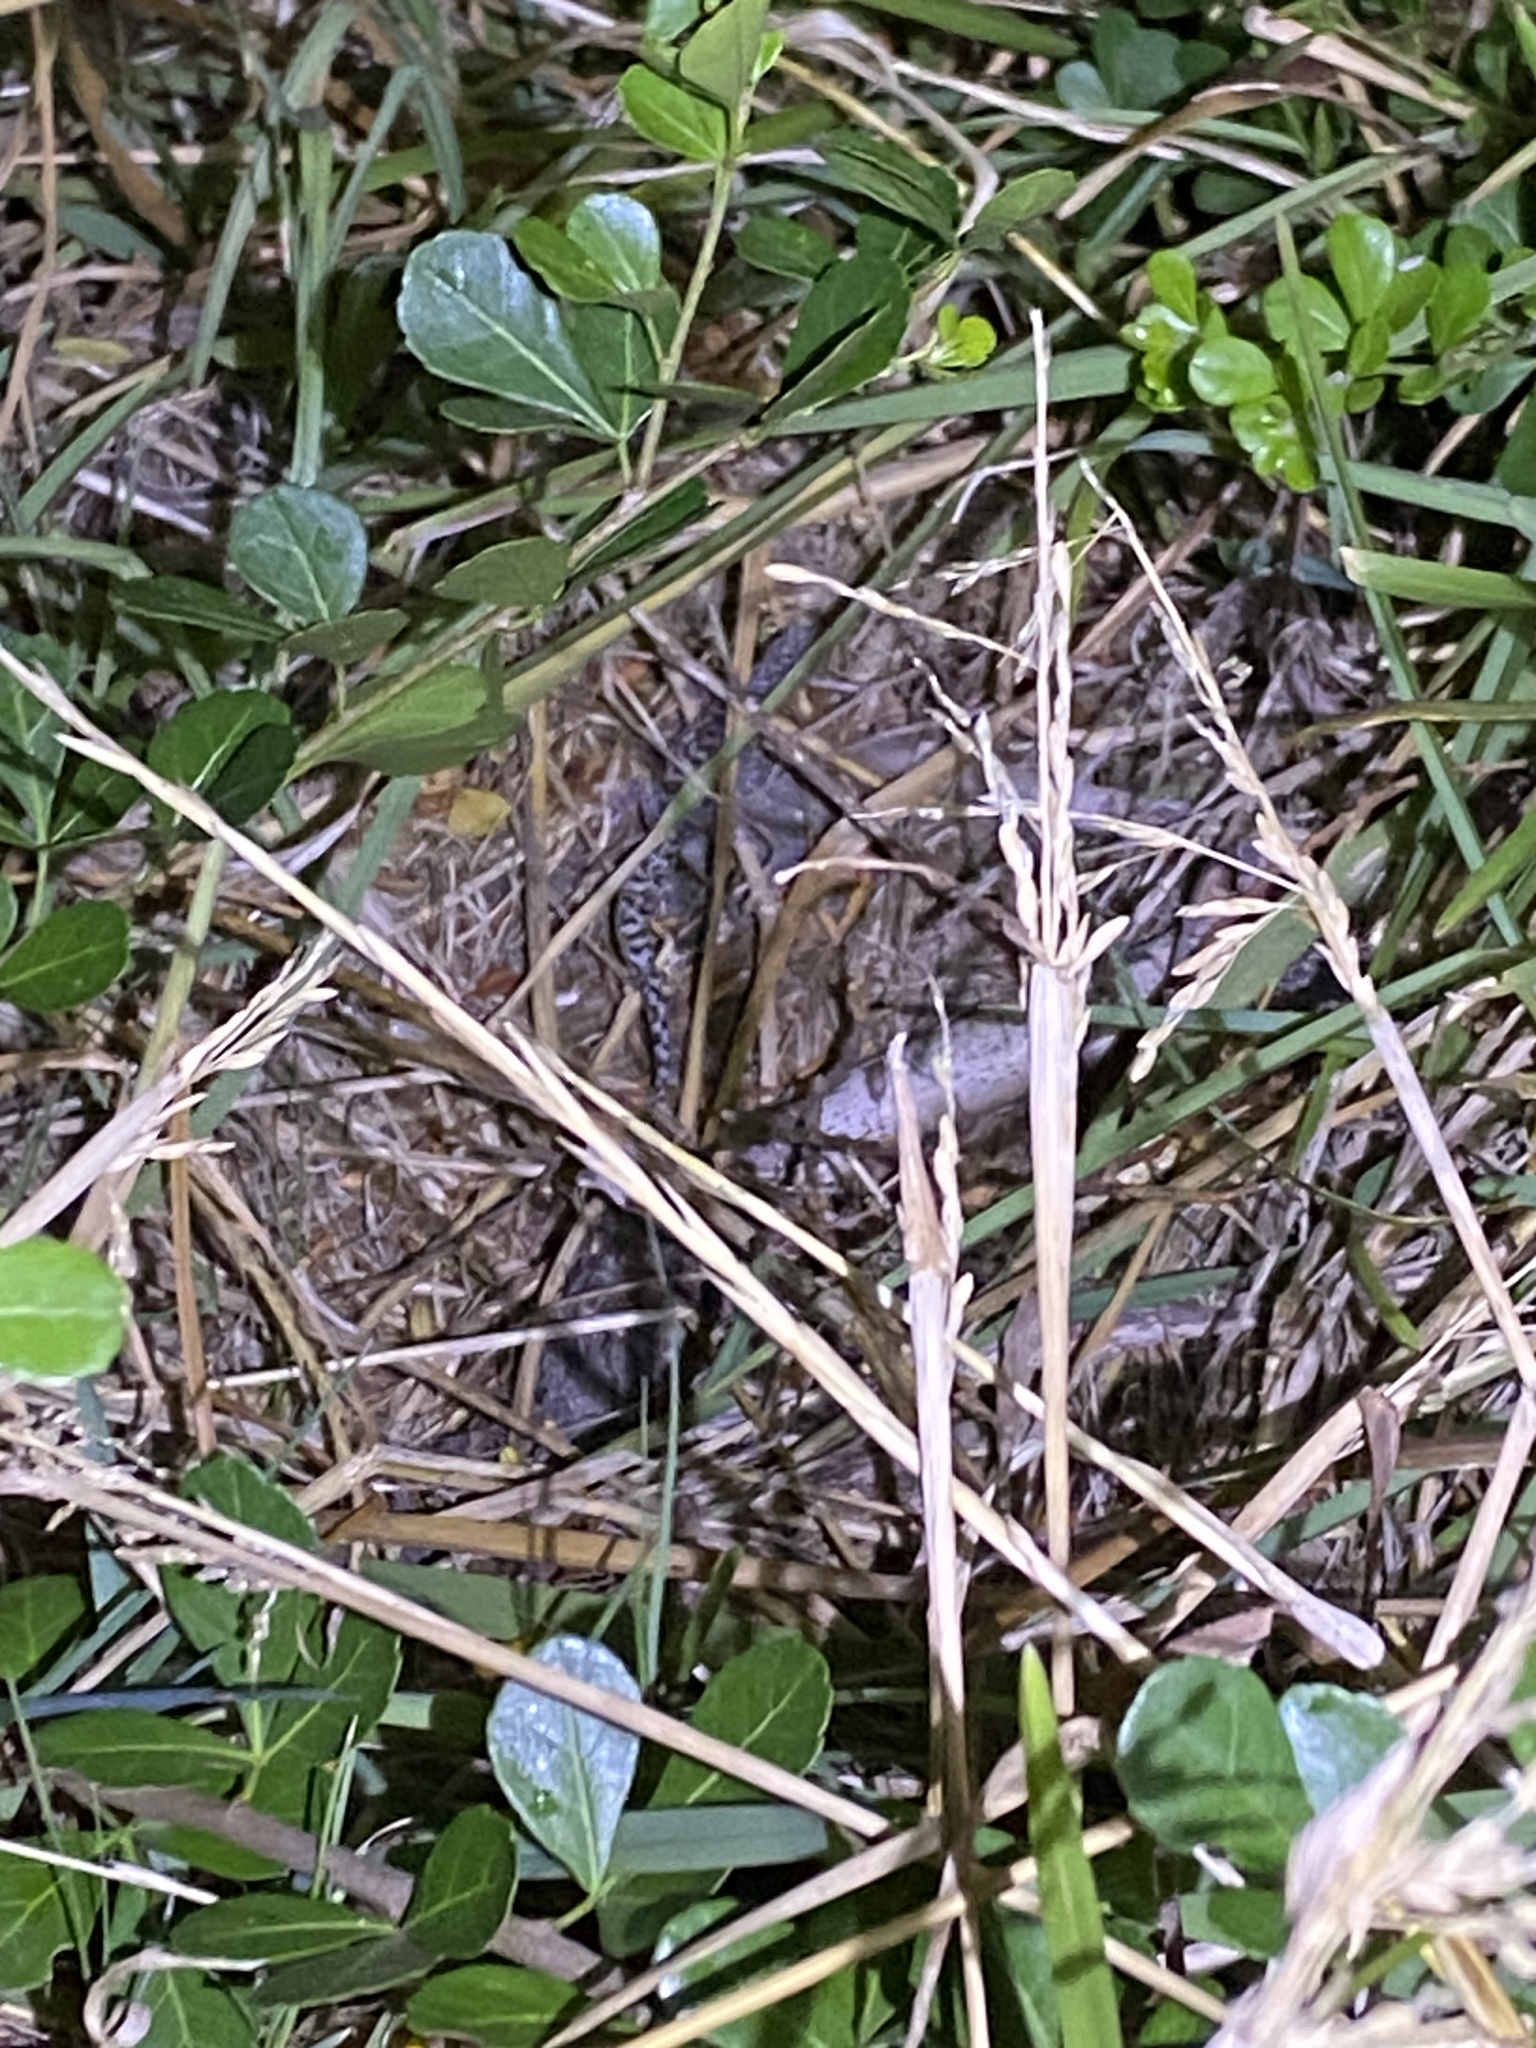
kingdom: Animalia
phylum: Chordata
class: Squamata
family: Gekkonidae
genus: Afrogecko
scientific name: Afrogecko porphyreus
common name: Marbled leaf-toed gecko
